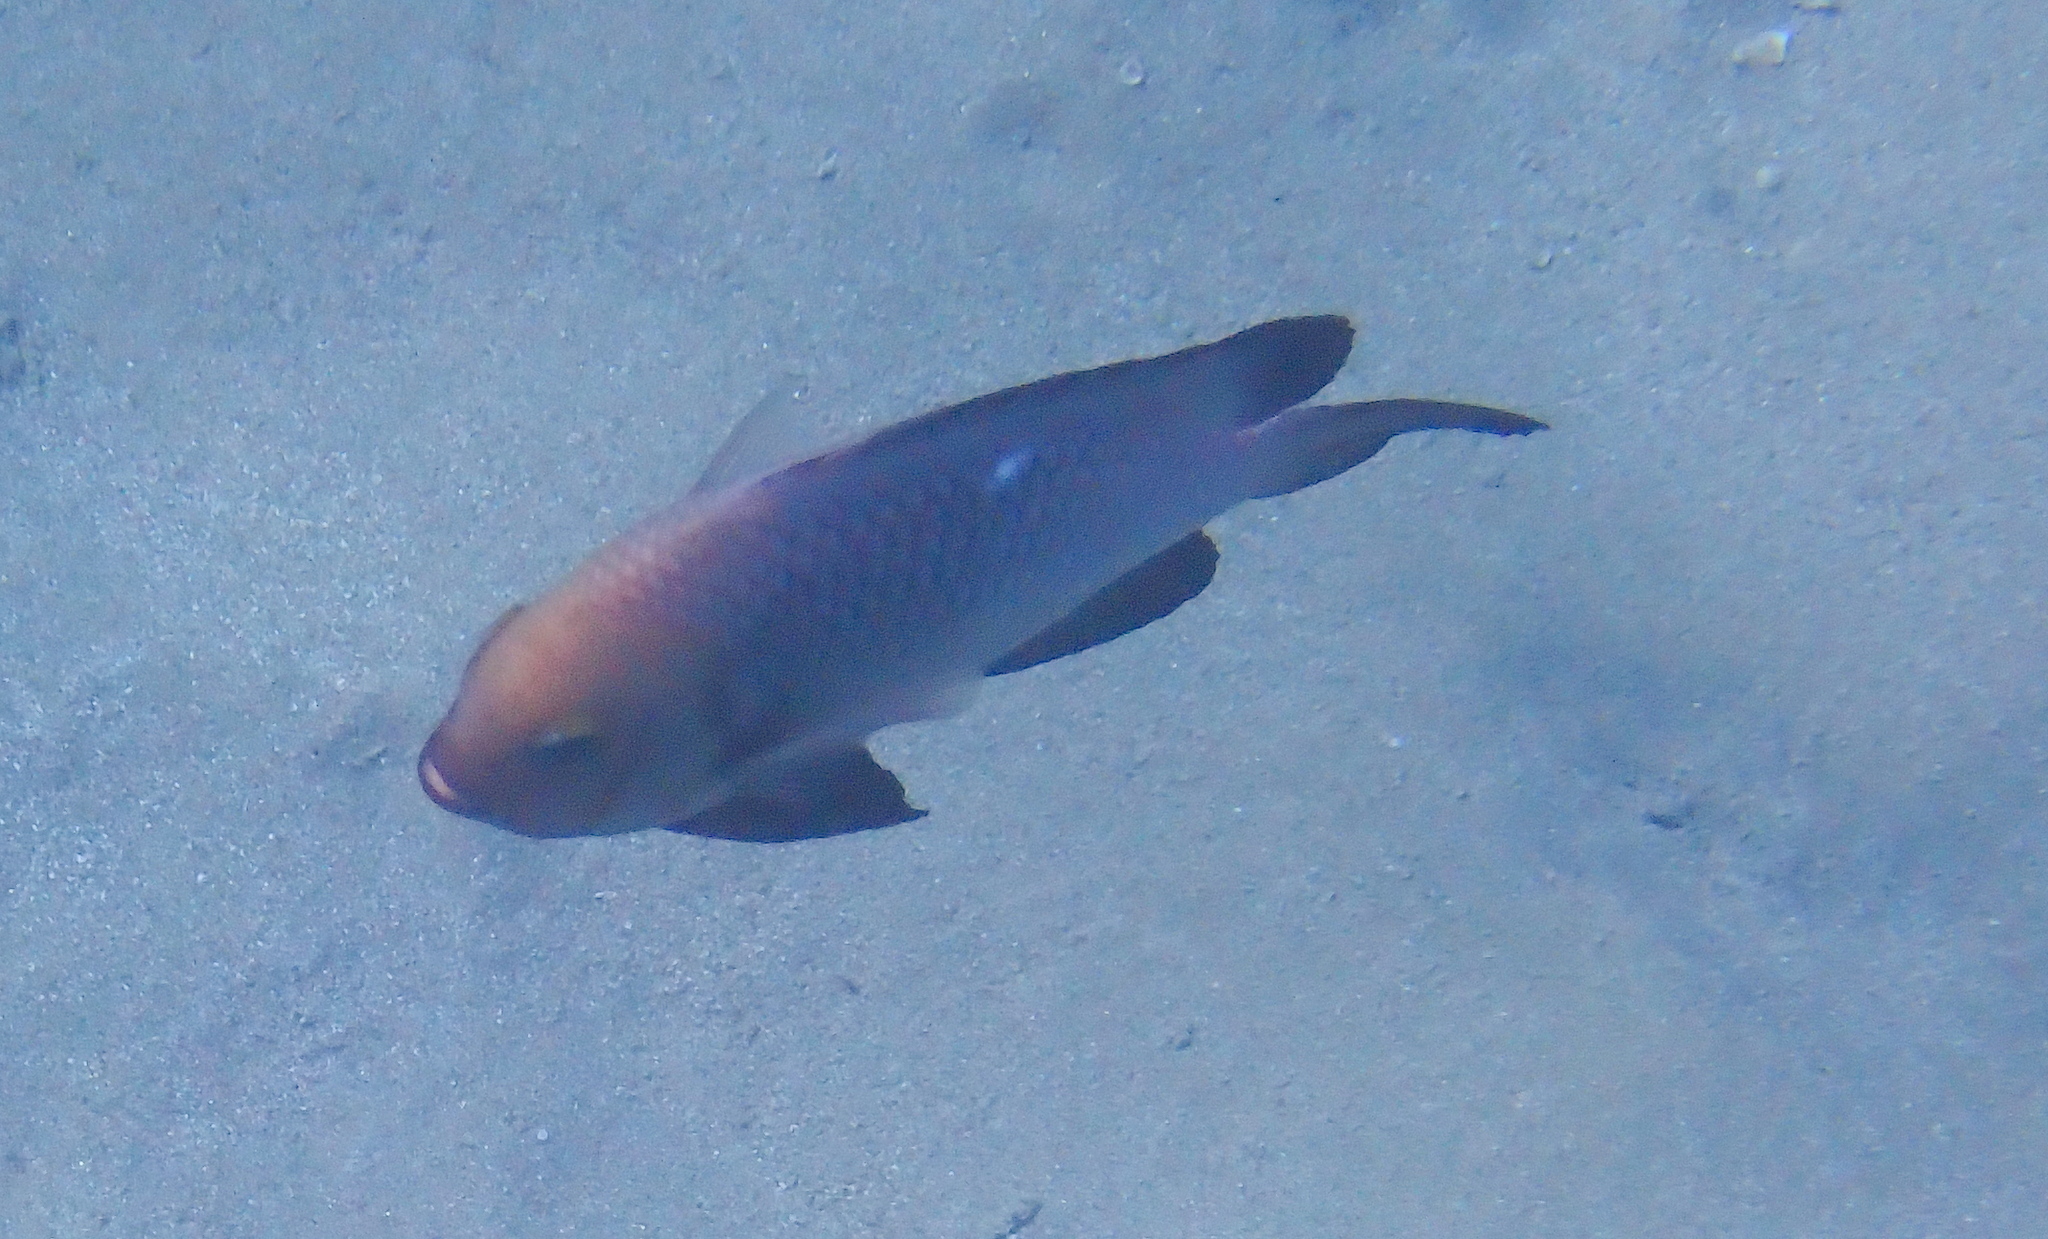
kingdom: Animalia
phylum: Chordata
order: Perciformes
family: Pomacentridae
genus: Dascyllus
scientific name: Dascyllus trimaculatus
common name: Threespot dascyllus
